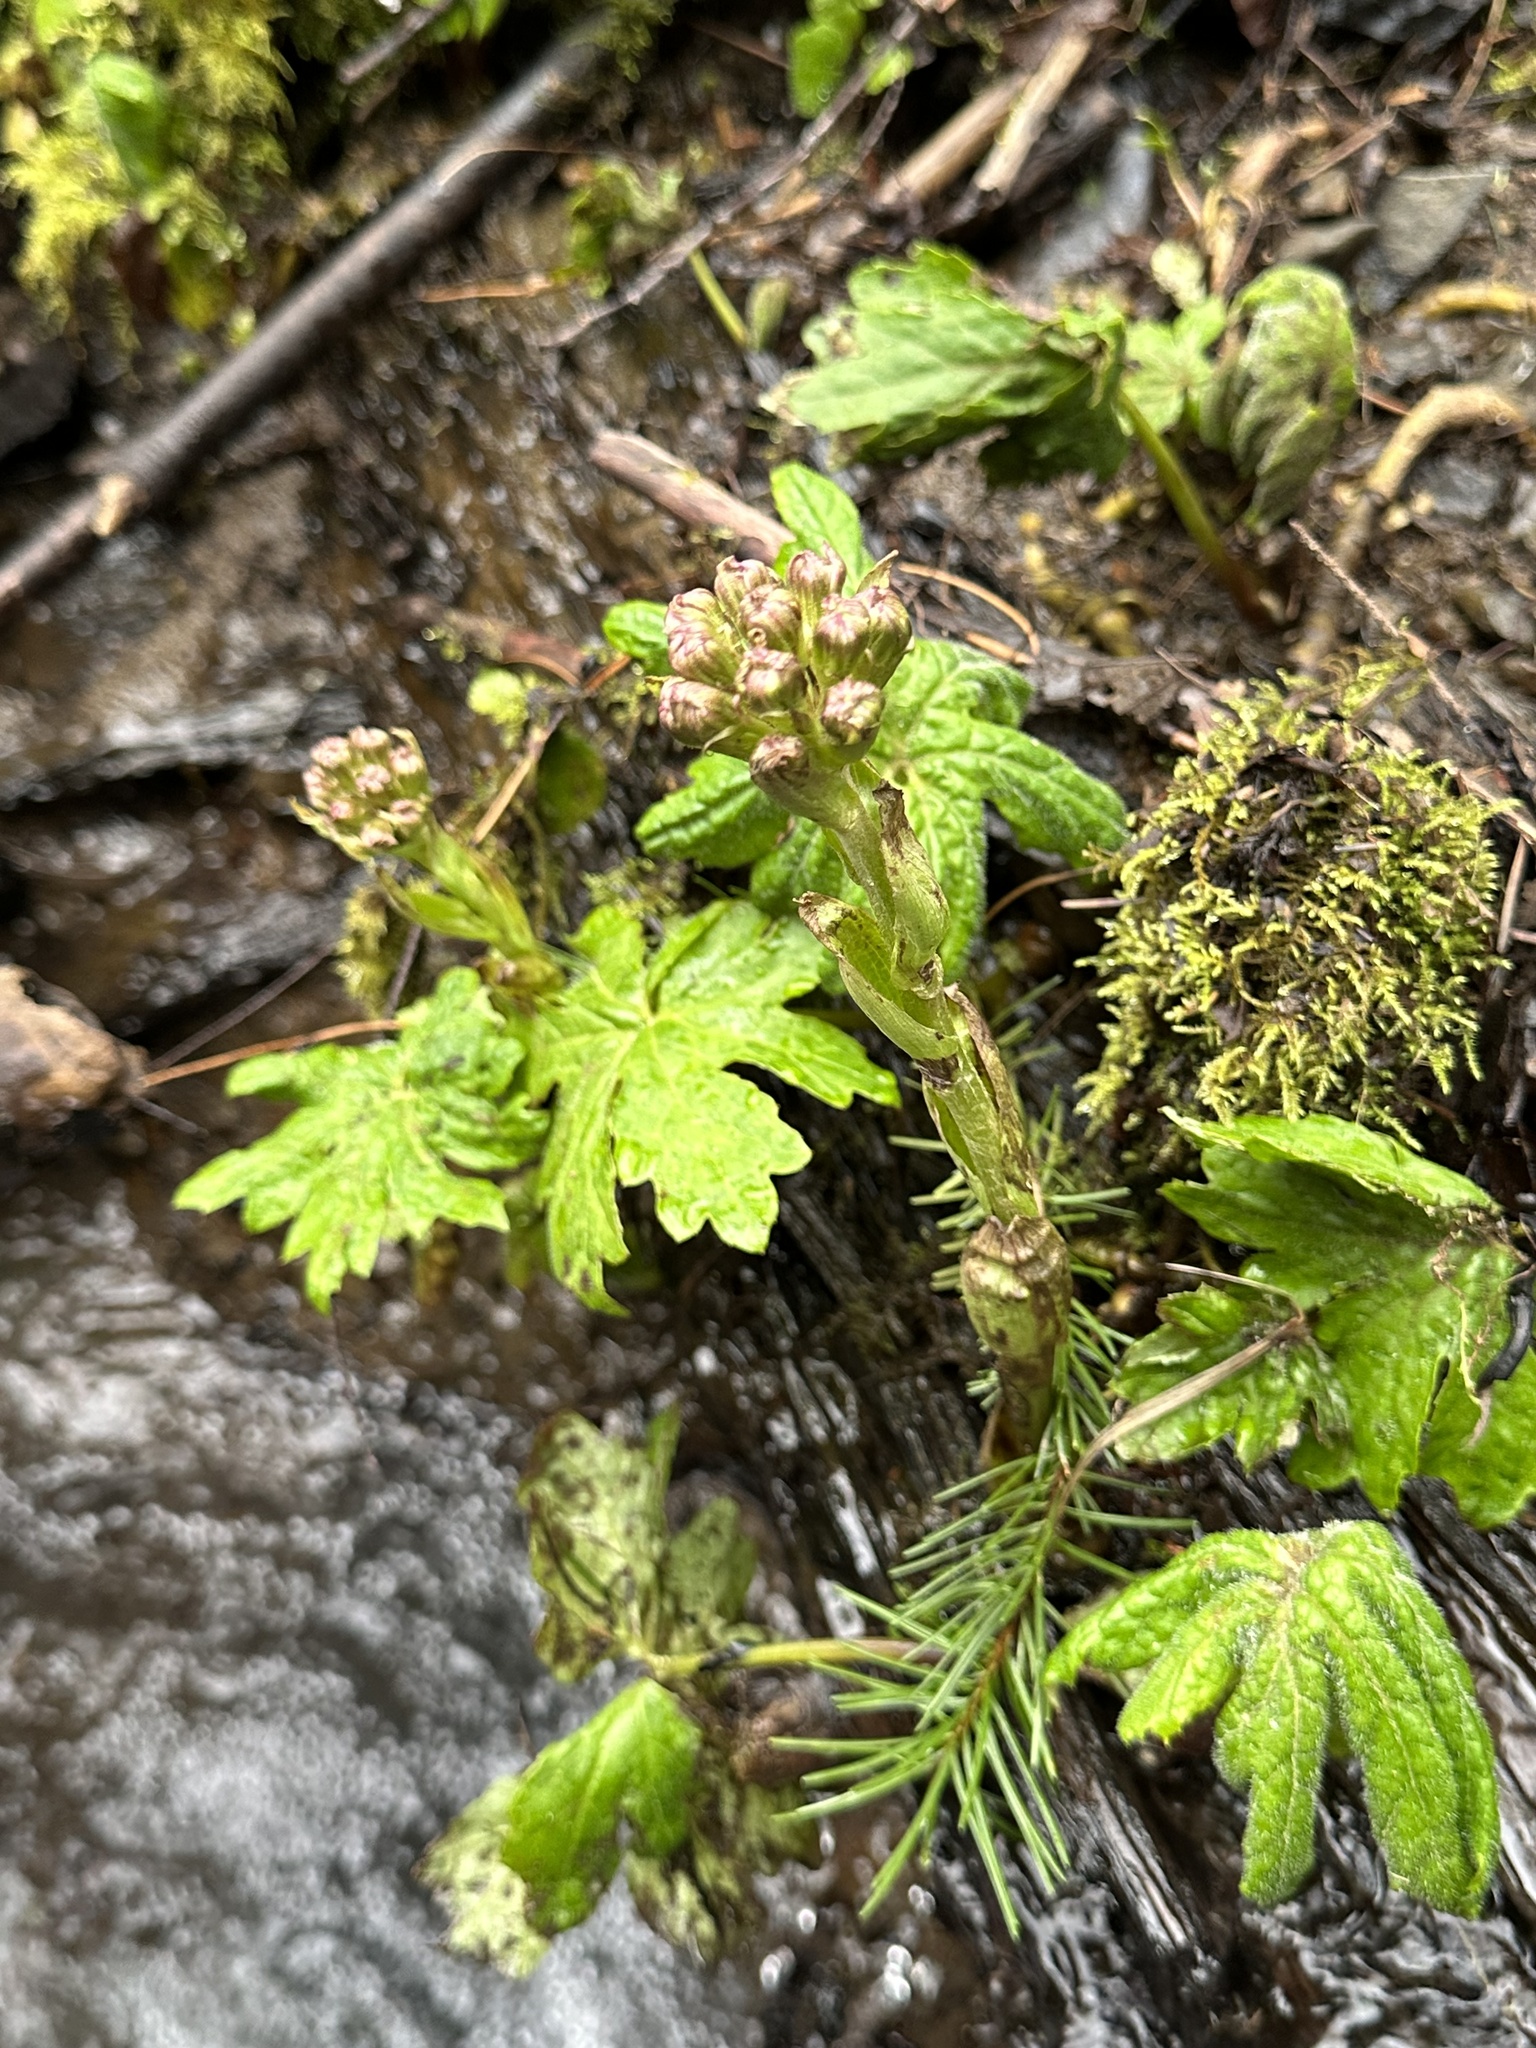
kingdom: Plantae
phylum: Tracheophyta
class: Magnoliopsida
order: Asterales
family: Asteraceae
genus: Petasites
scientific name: Petasites frigidus
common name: Arctic butterbur
